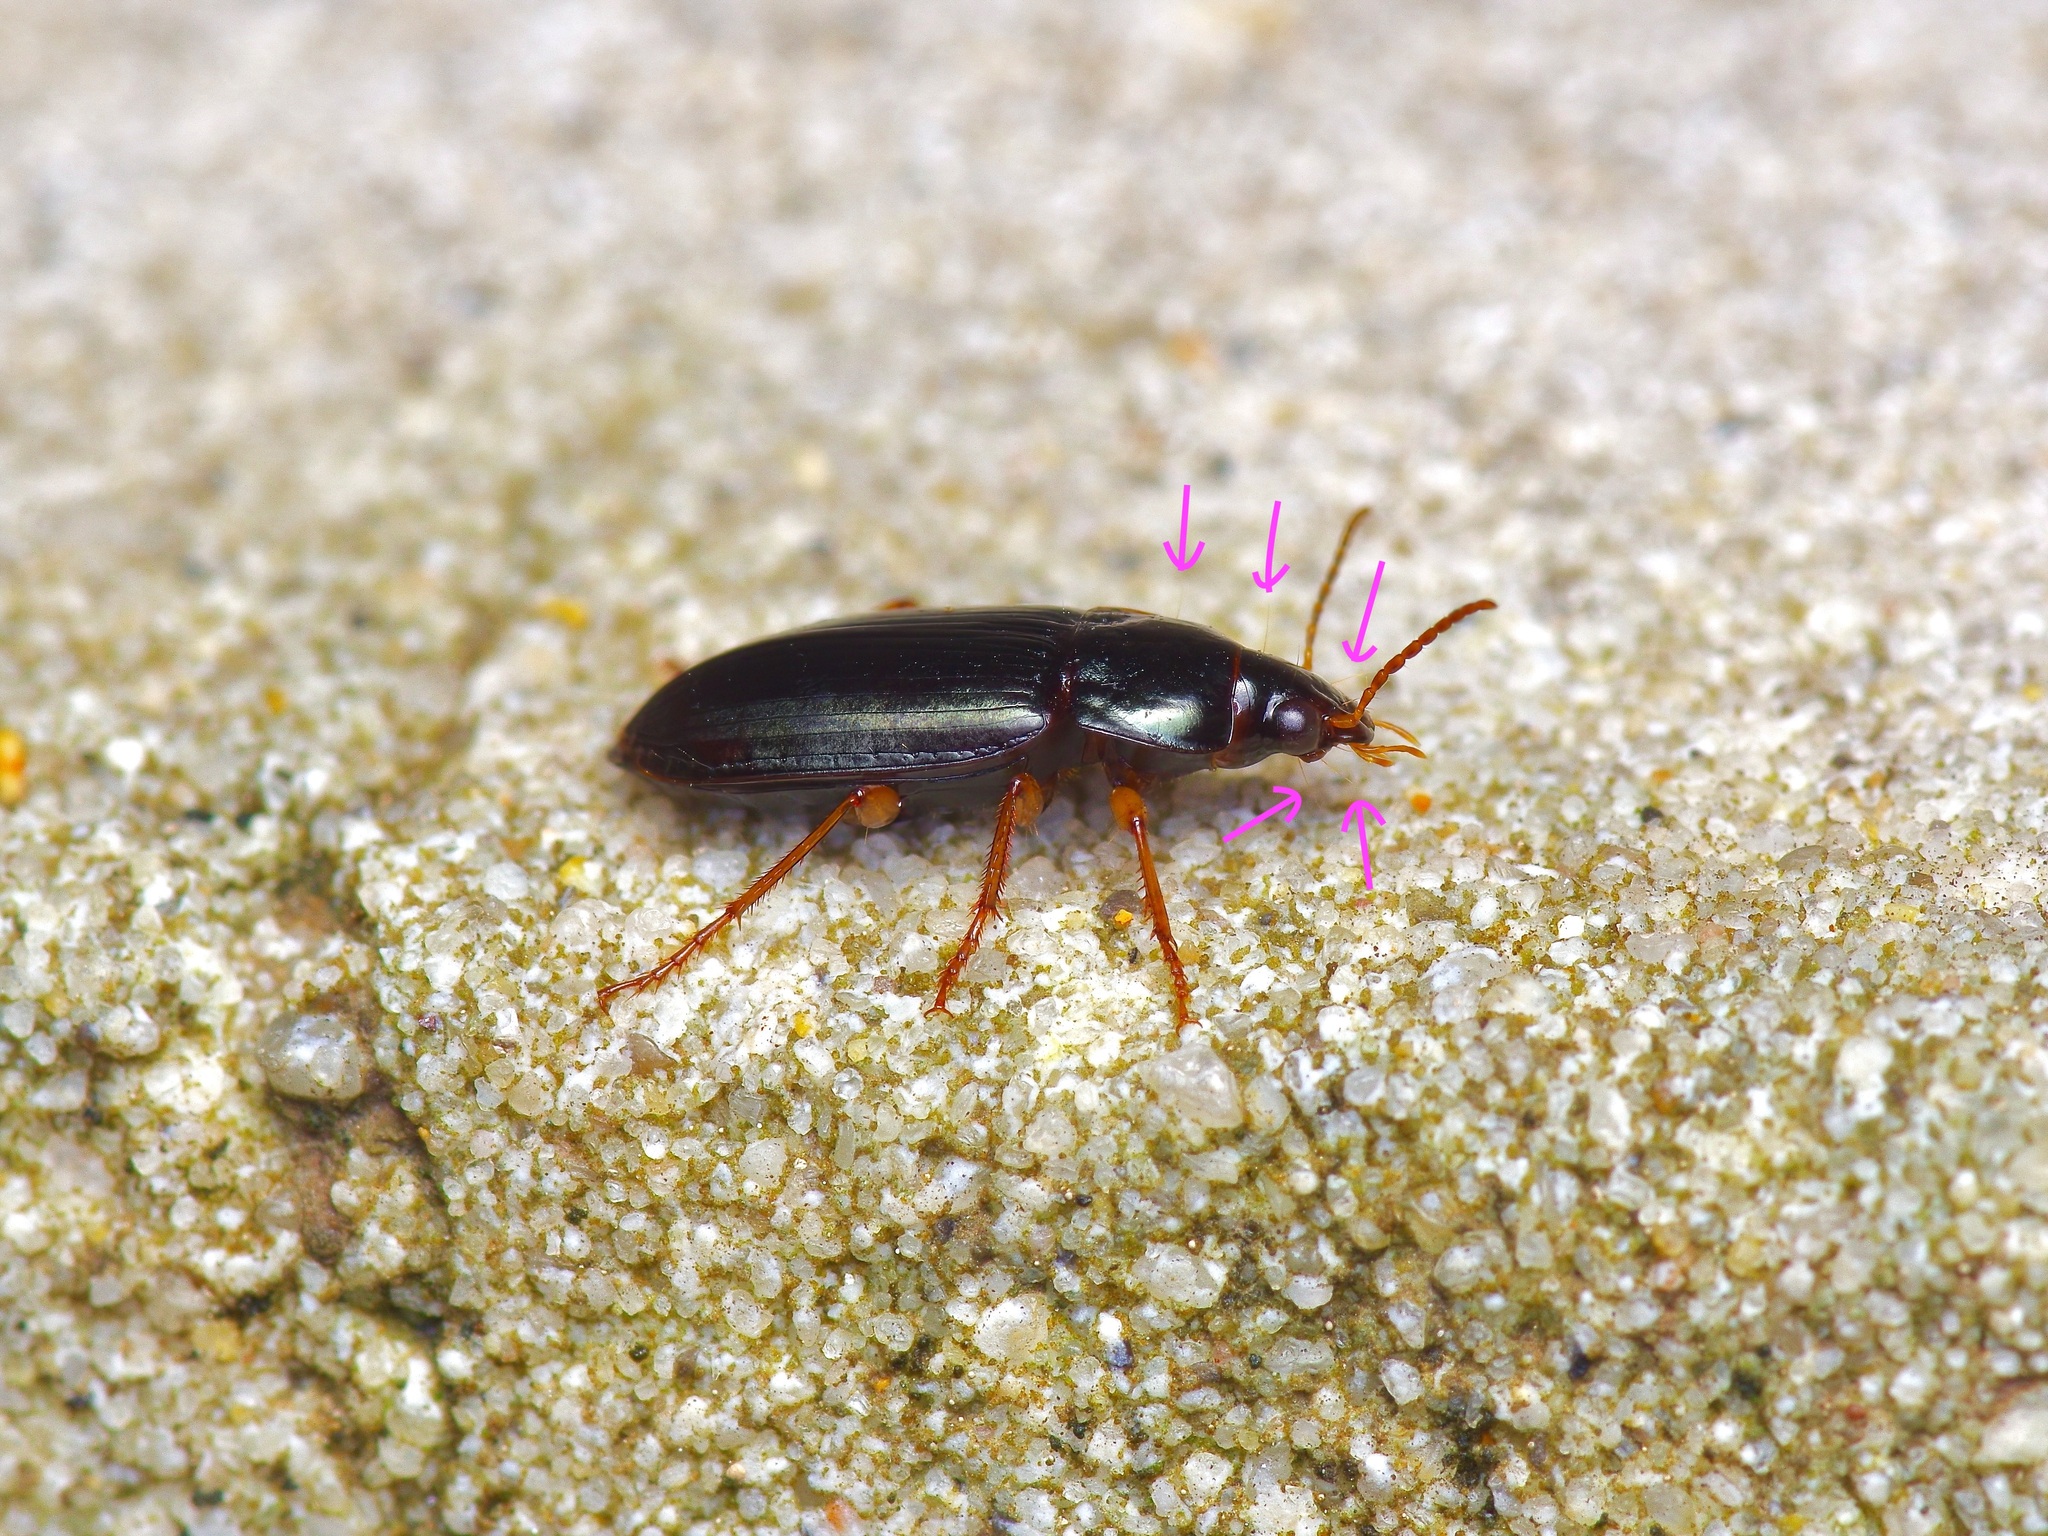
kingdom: Animalia
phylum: Arthropoda
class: Insecta
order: Coleoptera
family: Carabidae
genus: Notiobia
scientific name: Notiobia terminata
